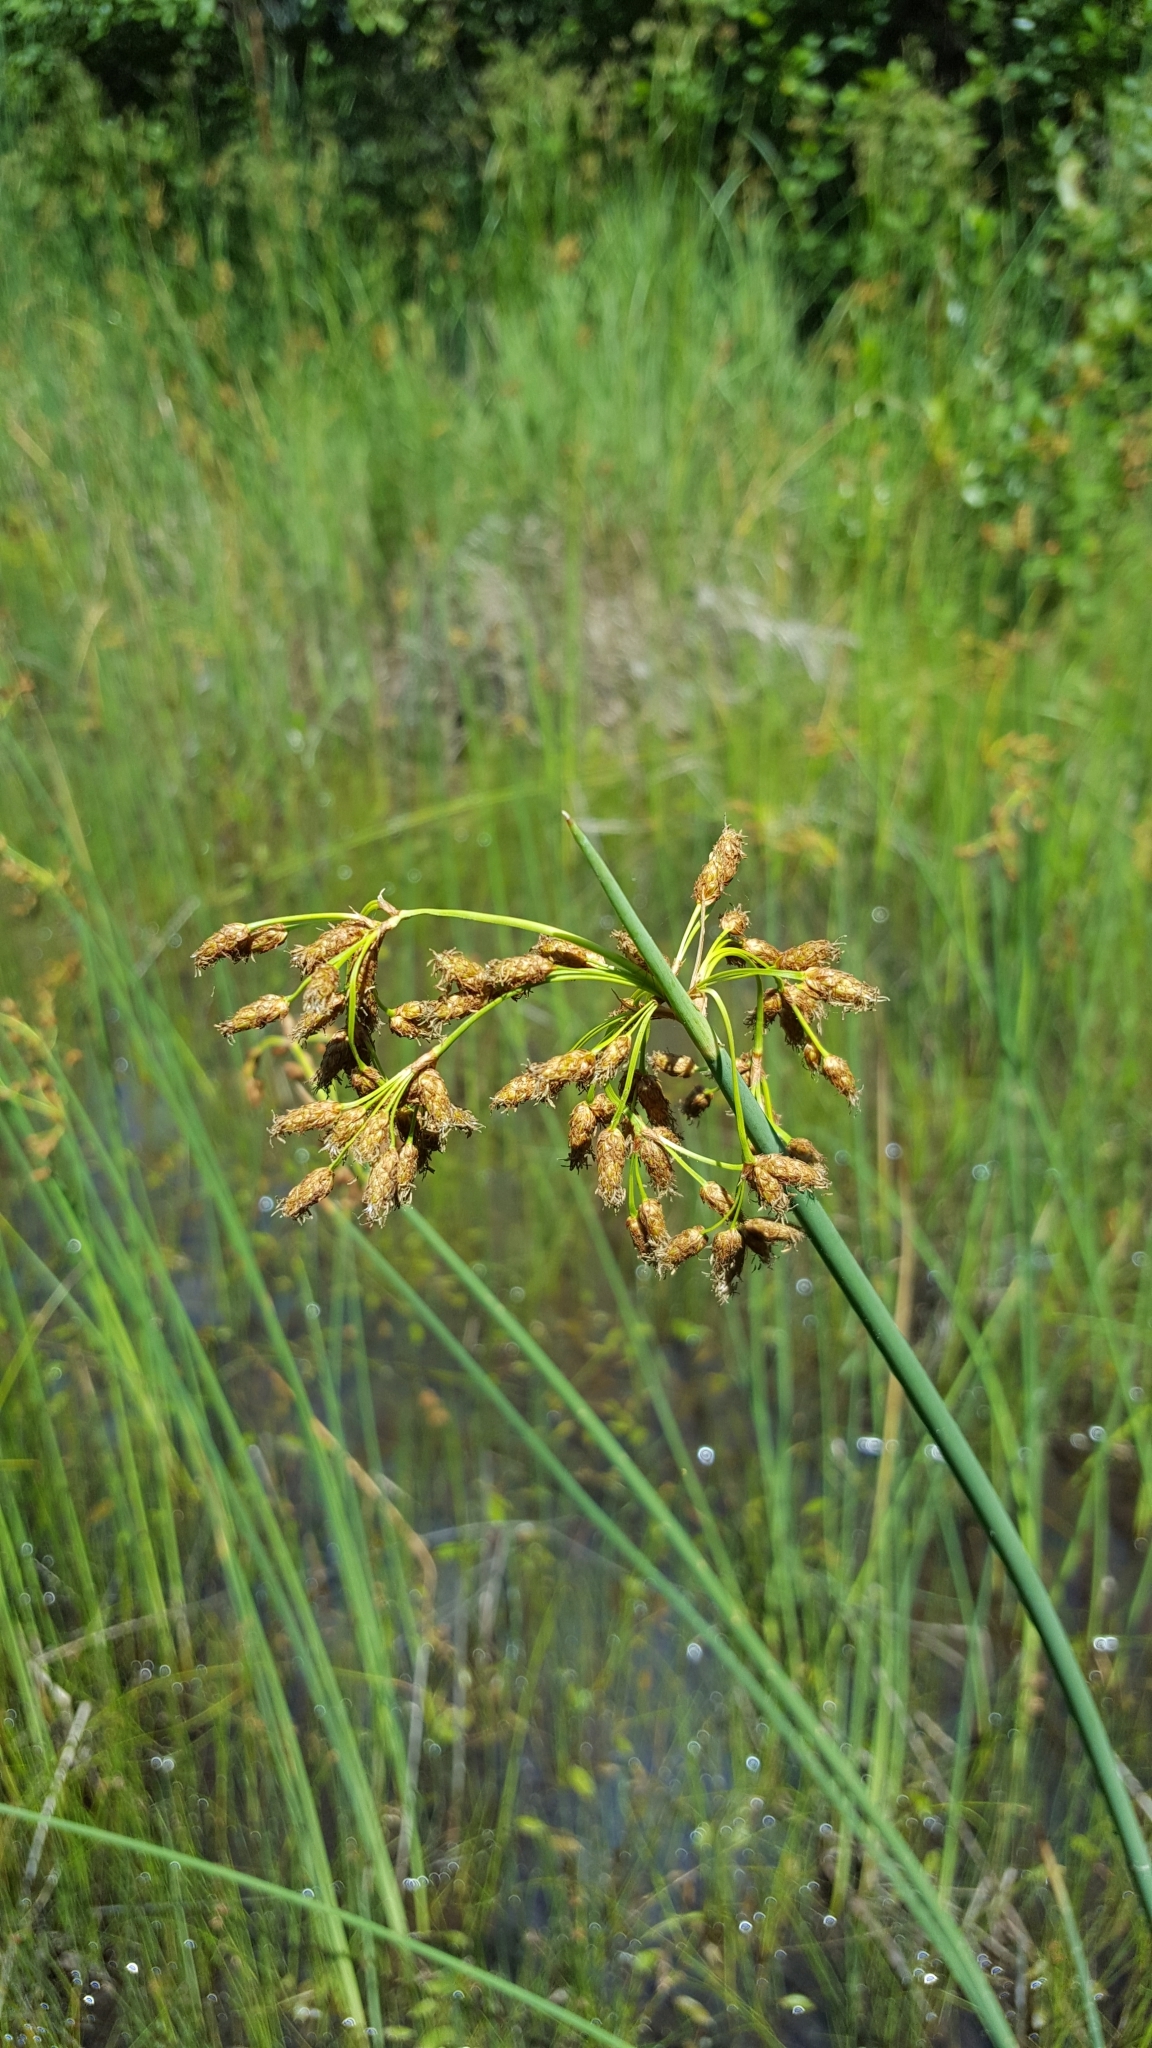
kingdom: Plantae
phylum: Tracheophyta
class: Liliopsida
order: Poales
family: Cyperaceae
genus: Schoenoplectus
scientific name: Schoenoplectus tabernaemontani
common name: Grey club-rush
